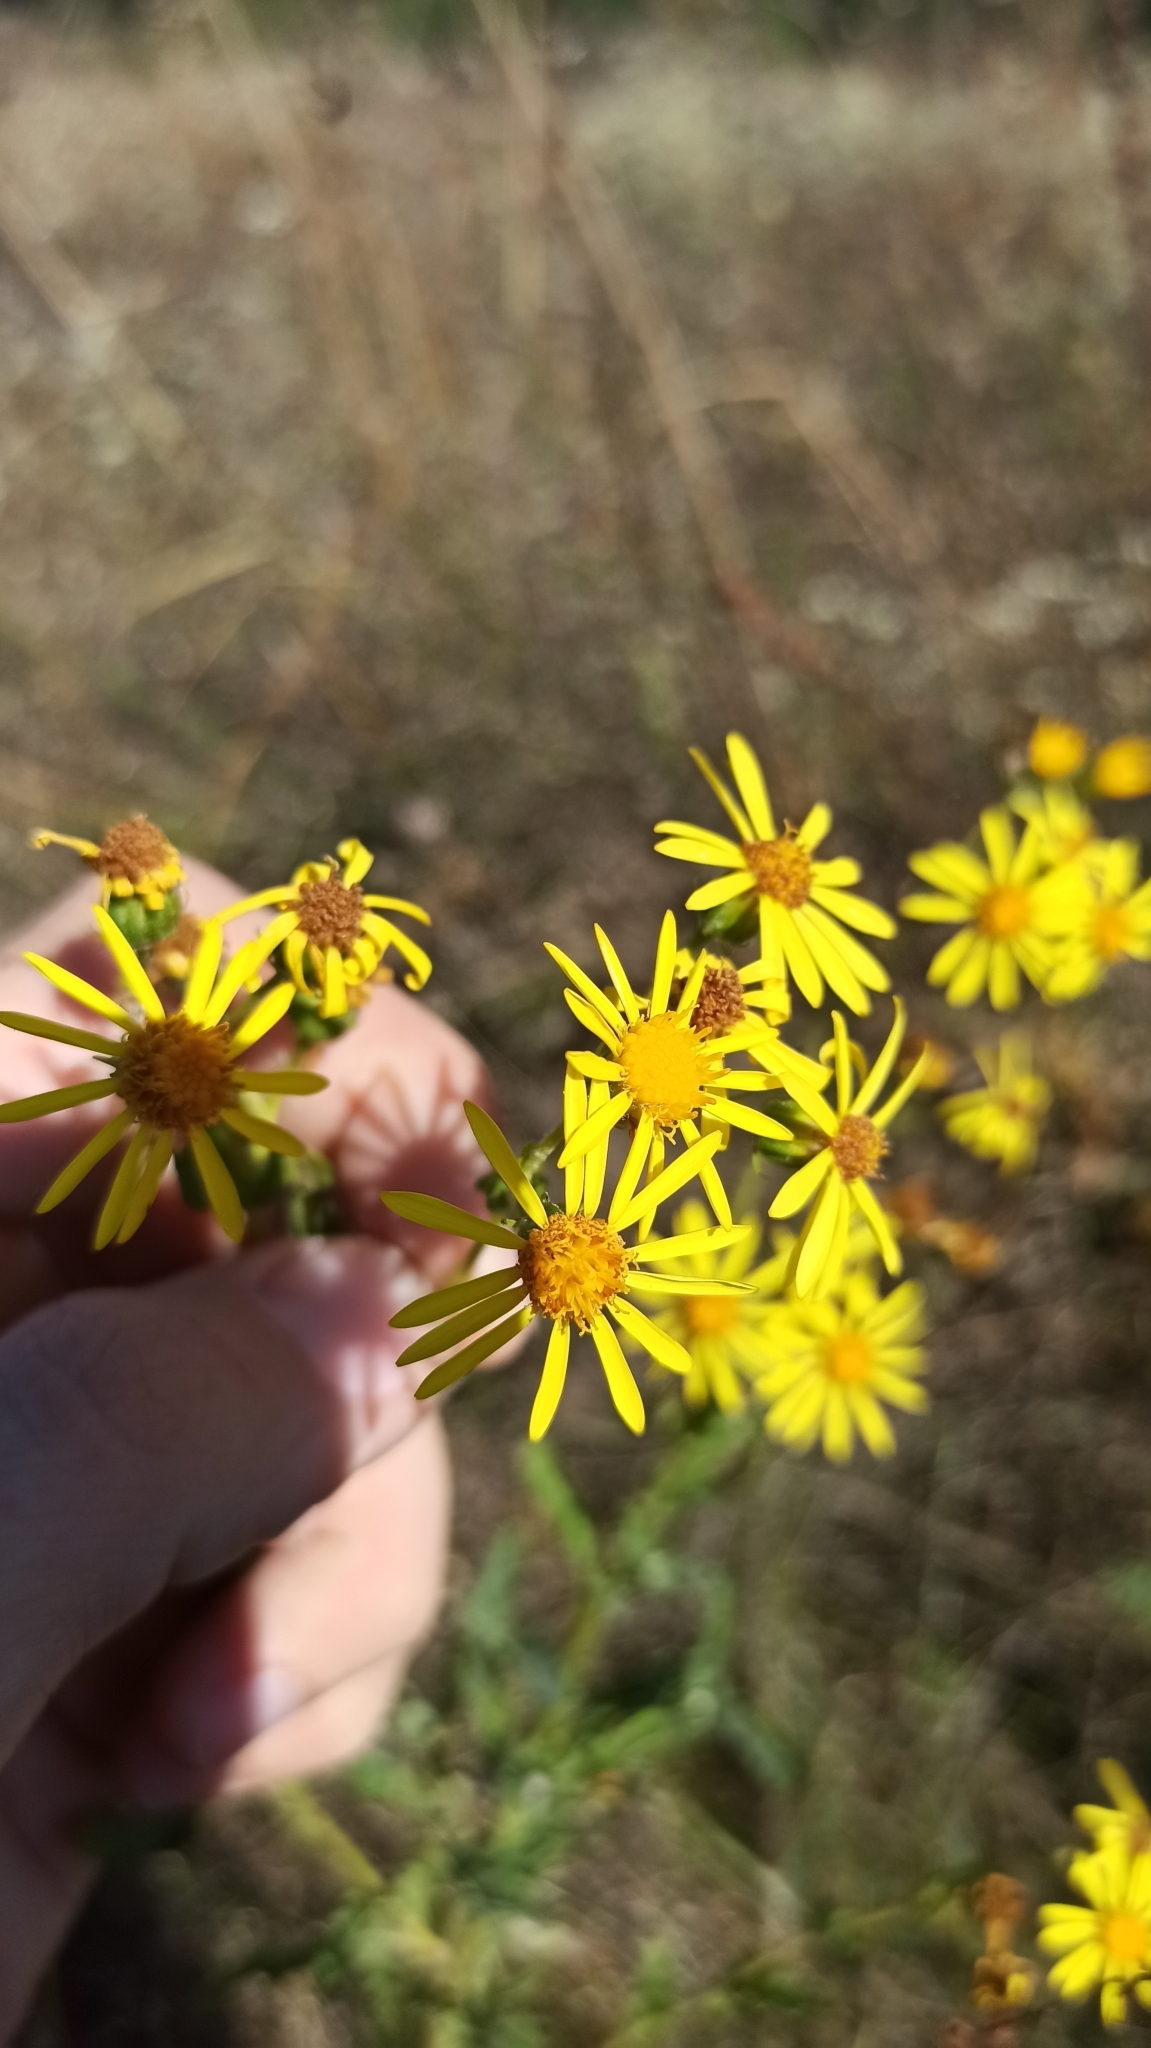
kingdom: Plantae
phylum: Tracheophyta
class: Magnoliopsida
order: Asterales
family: Asteraceae
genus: Jacobaea
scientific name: Jacobaea erucifolia
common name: Hoary ragwort
